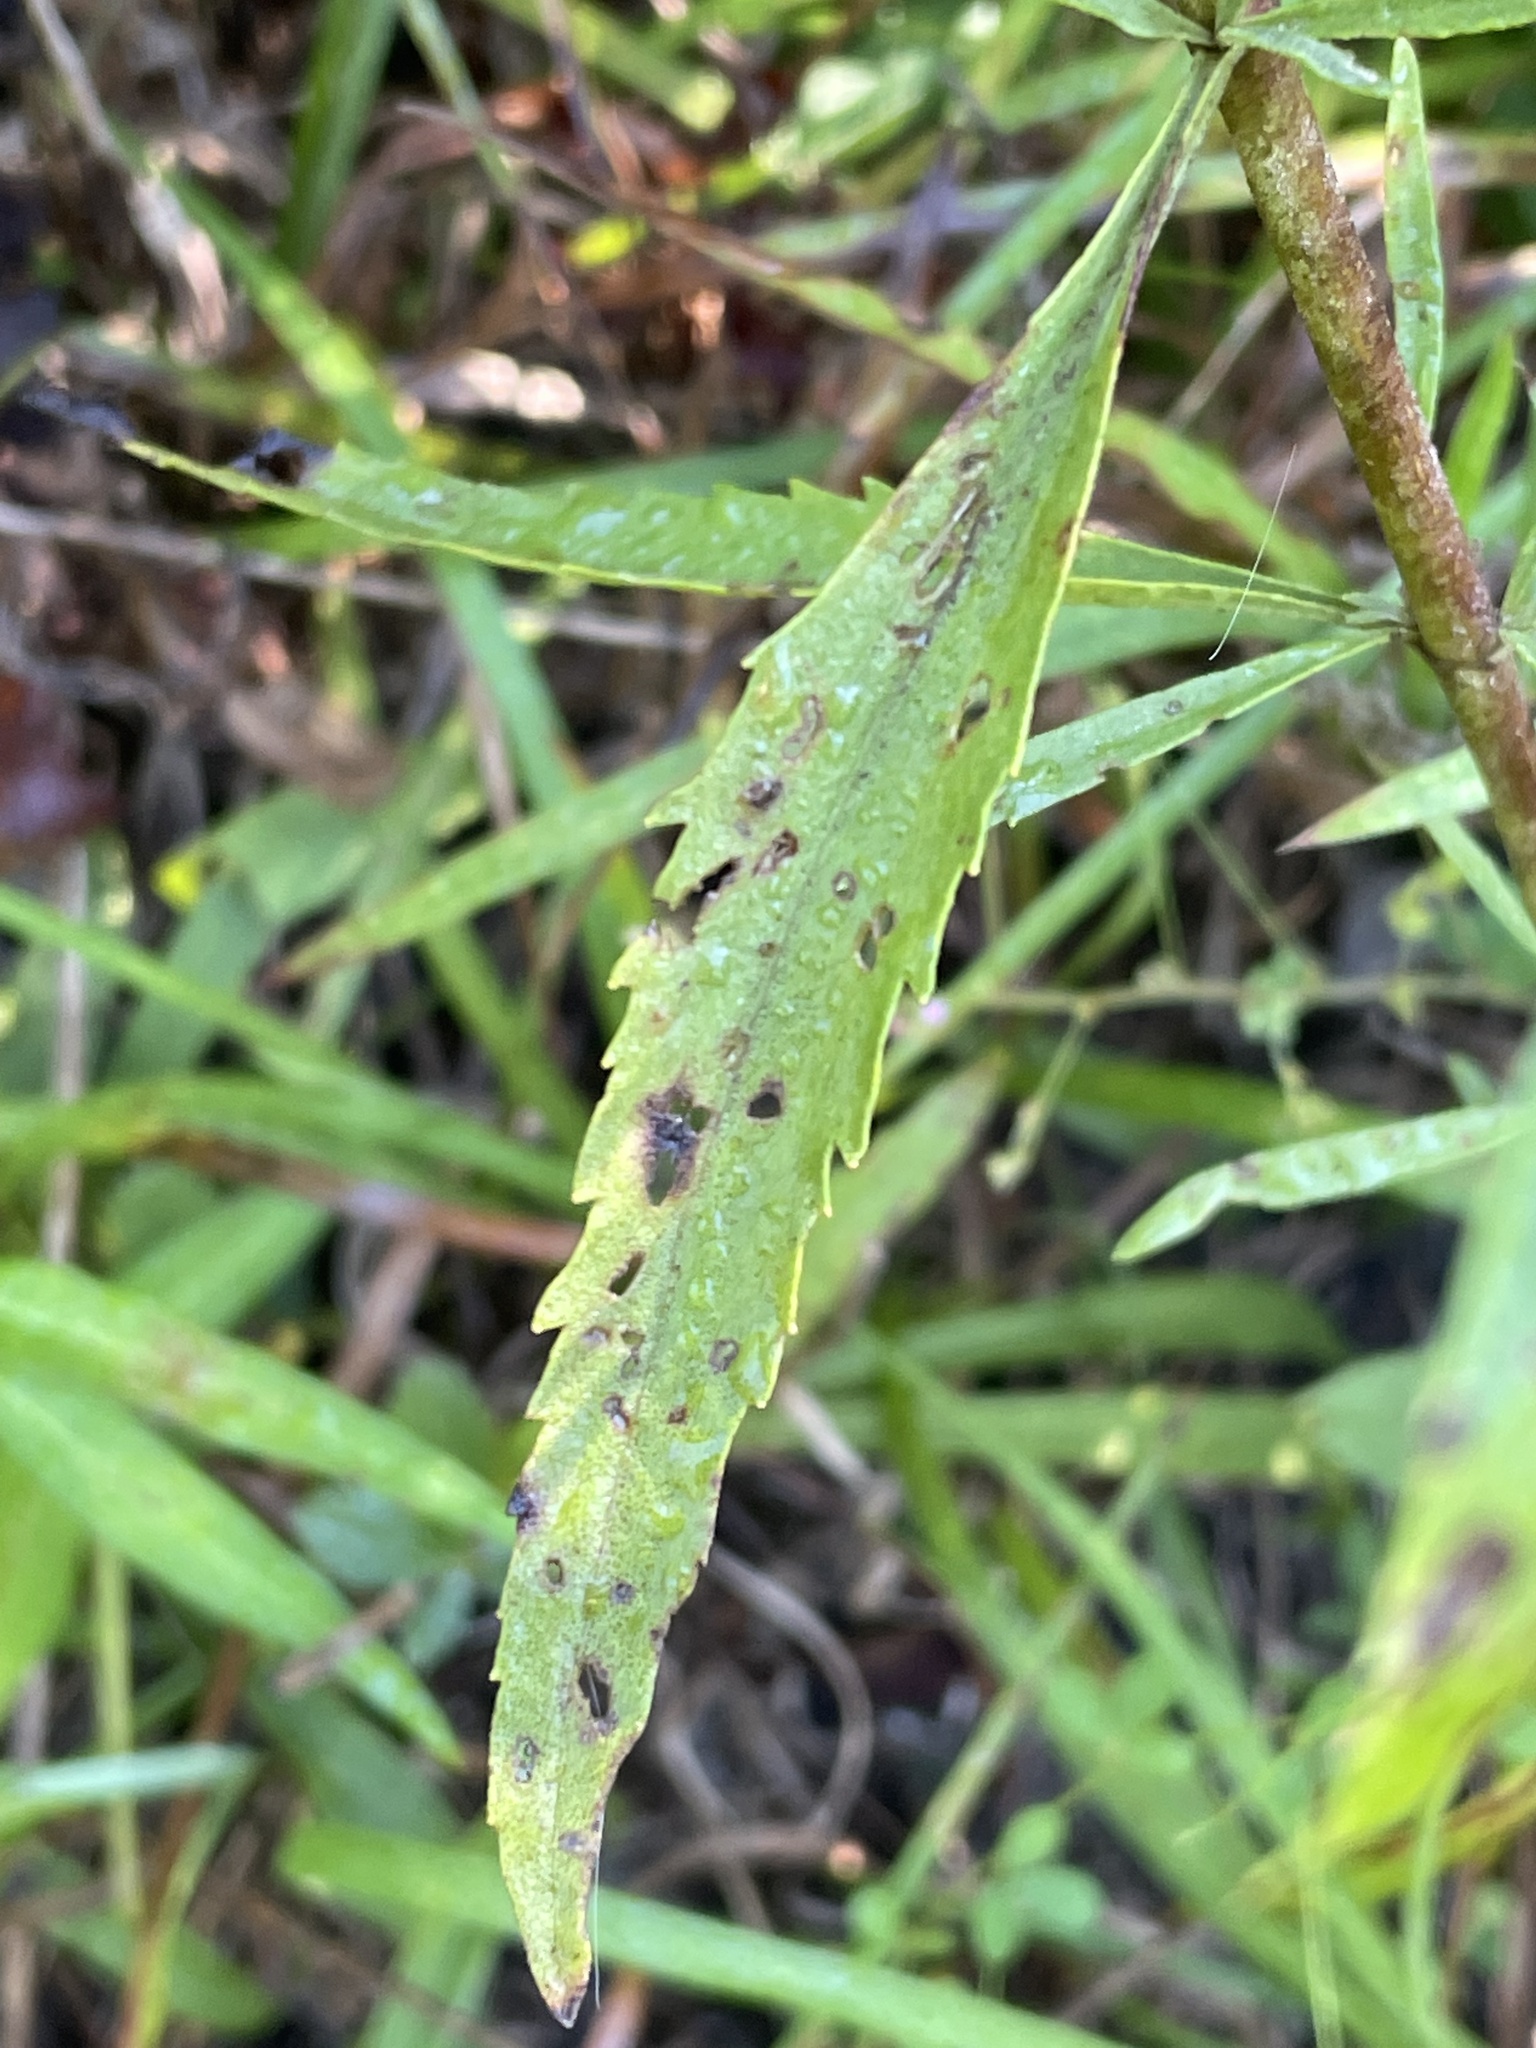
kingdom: Plantae
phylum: Tracheophyta
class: Magnoliopsida
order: Asterales
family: Asteraceae
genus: Eupatorium
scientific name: Eupatorium torreyanum
